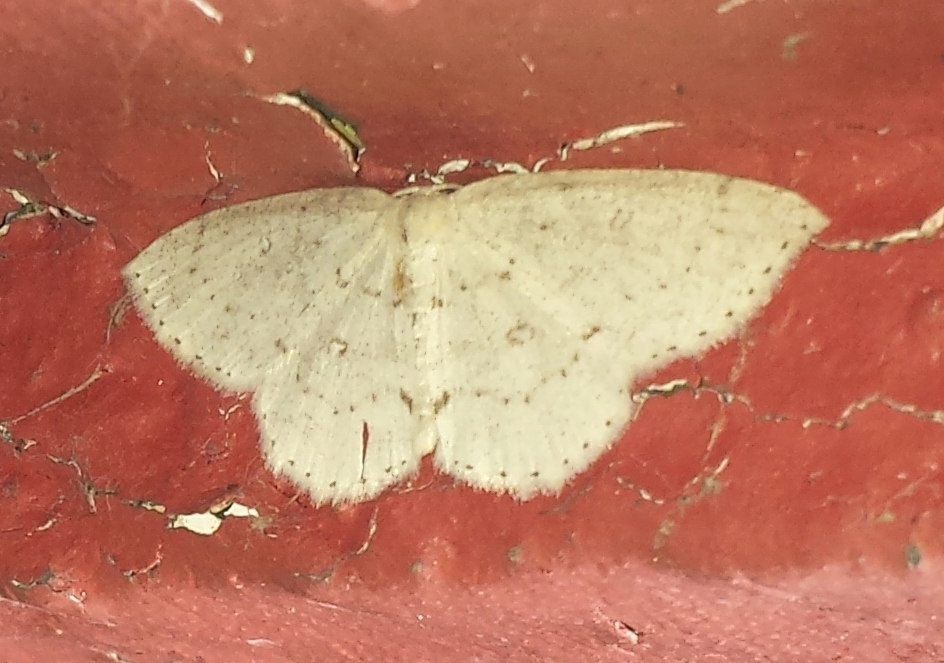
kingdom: Animalia
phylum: Arthropoda
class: Insecta
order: Lepidoptera
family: Geometridae
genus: Cyclophora
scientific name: Cyclophora pendulinaria
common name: Sweet fern geometer
